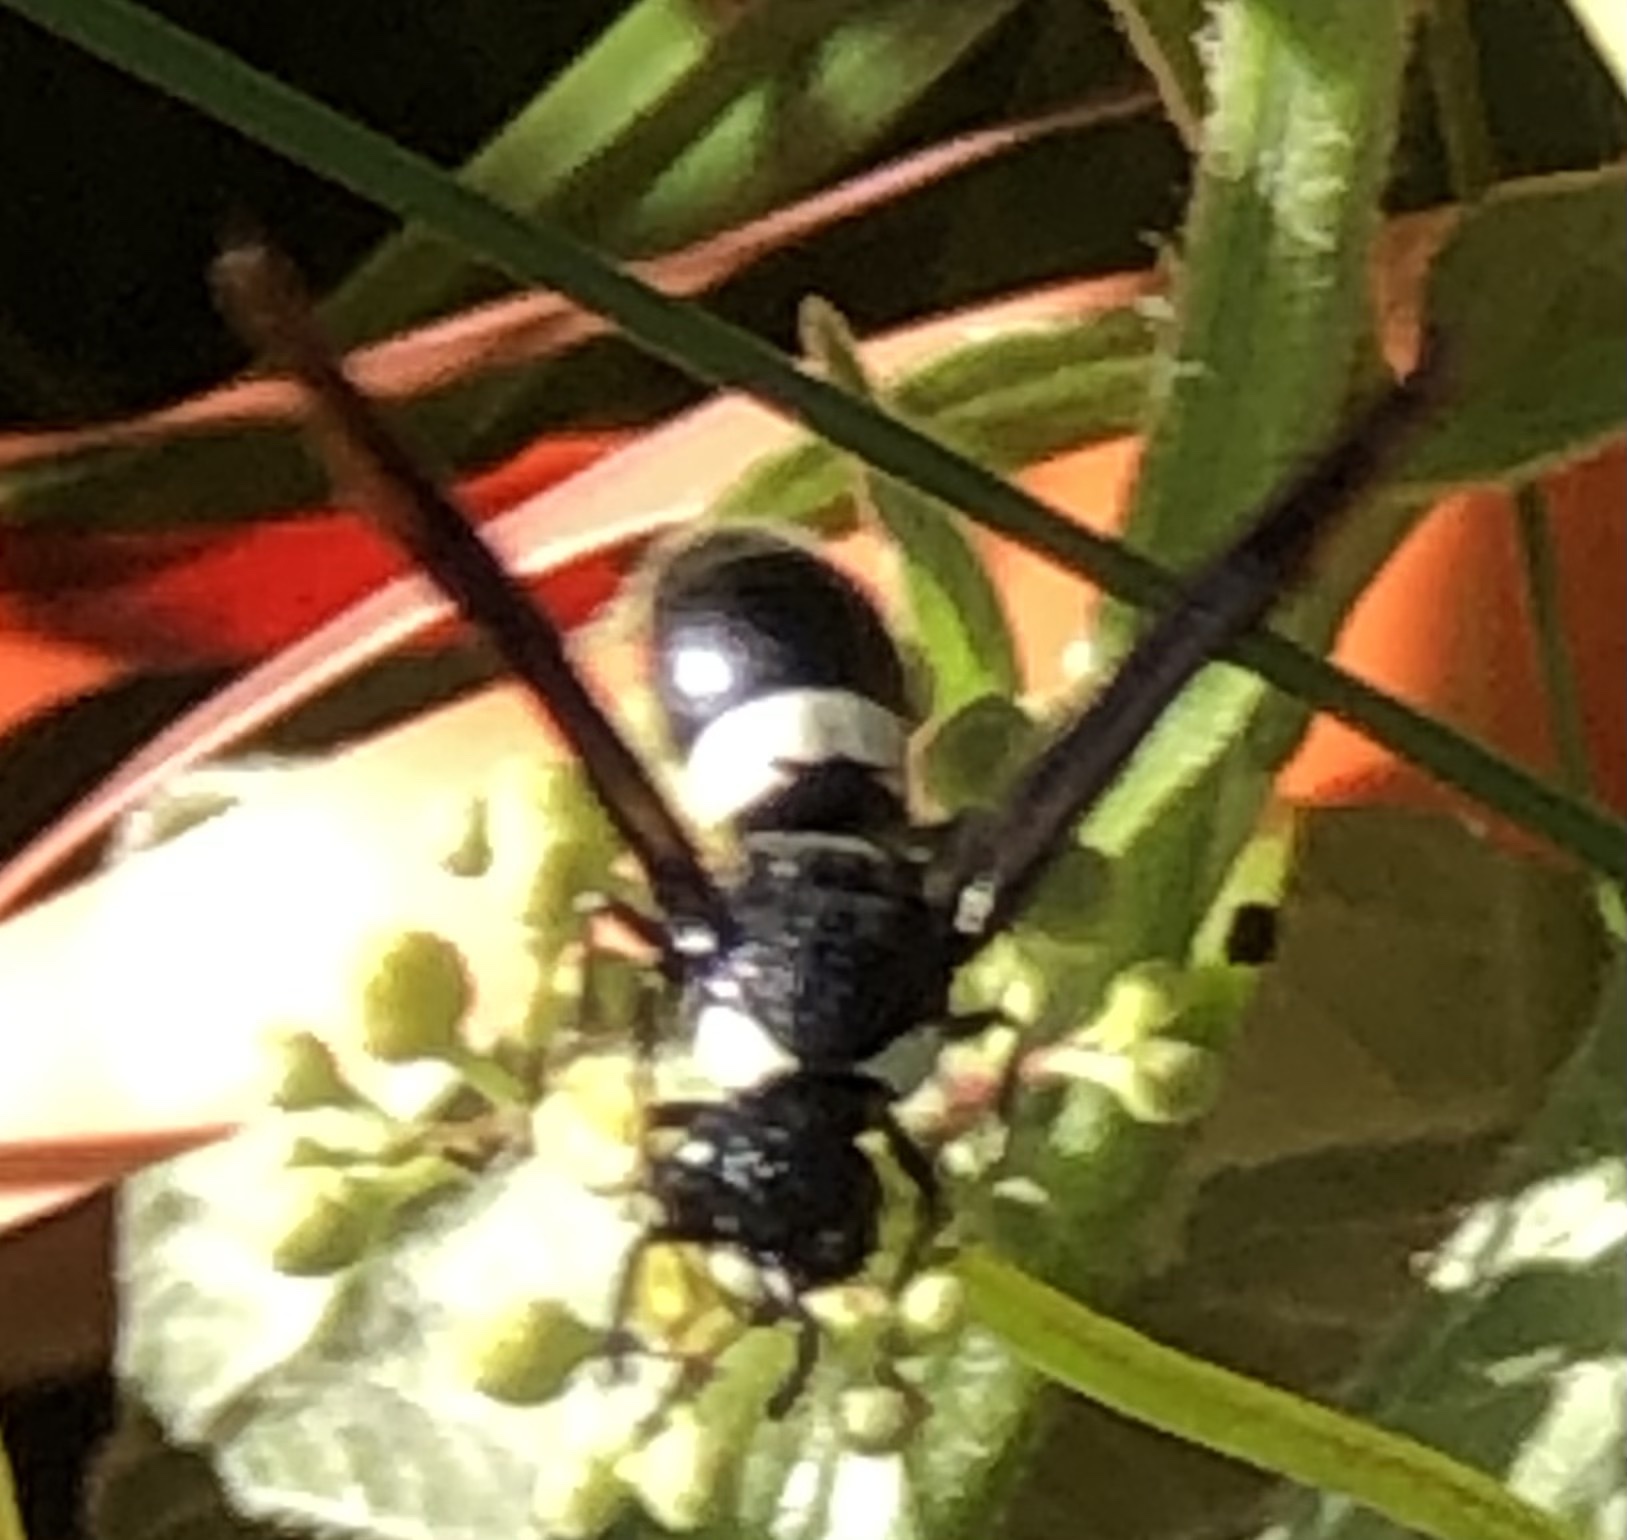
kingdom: Animalia
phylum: Arthropoda
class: Insecta
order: Hymenoptera
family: Eumenidae
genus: Monobia
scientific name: Monobia quadridens
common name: Four-toothed mason wasp
